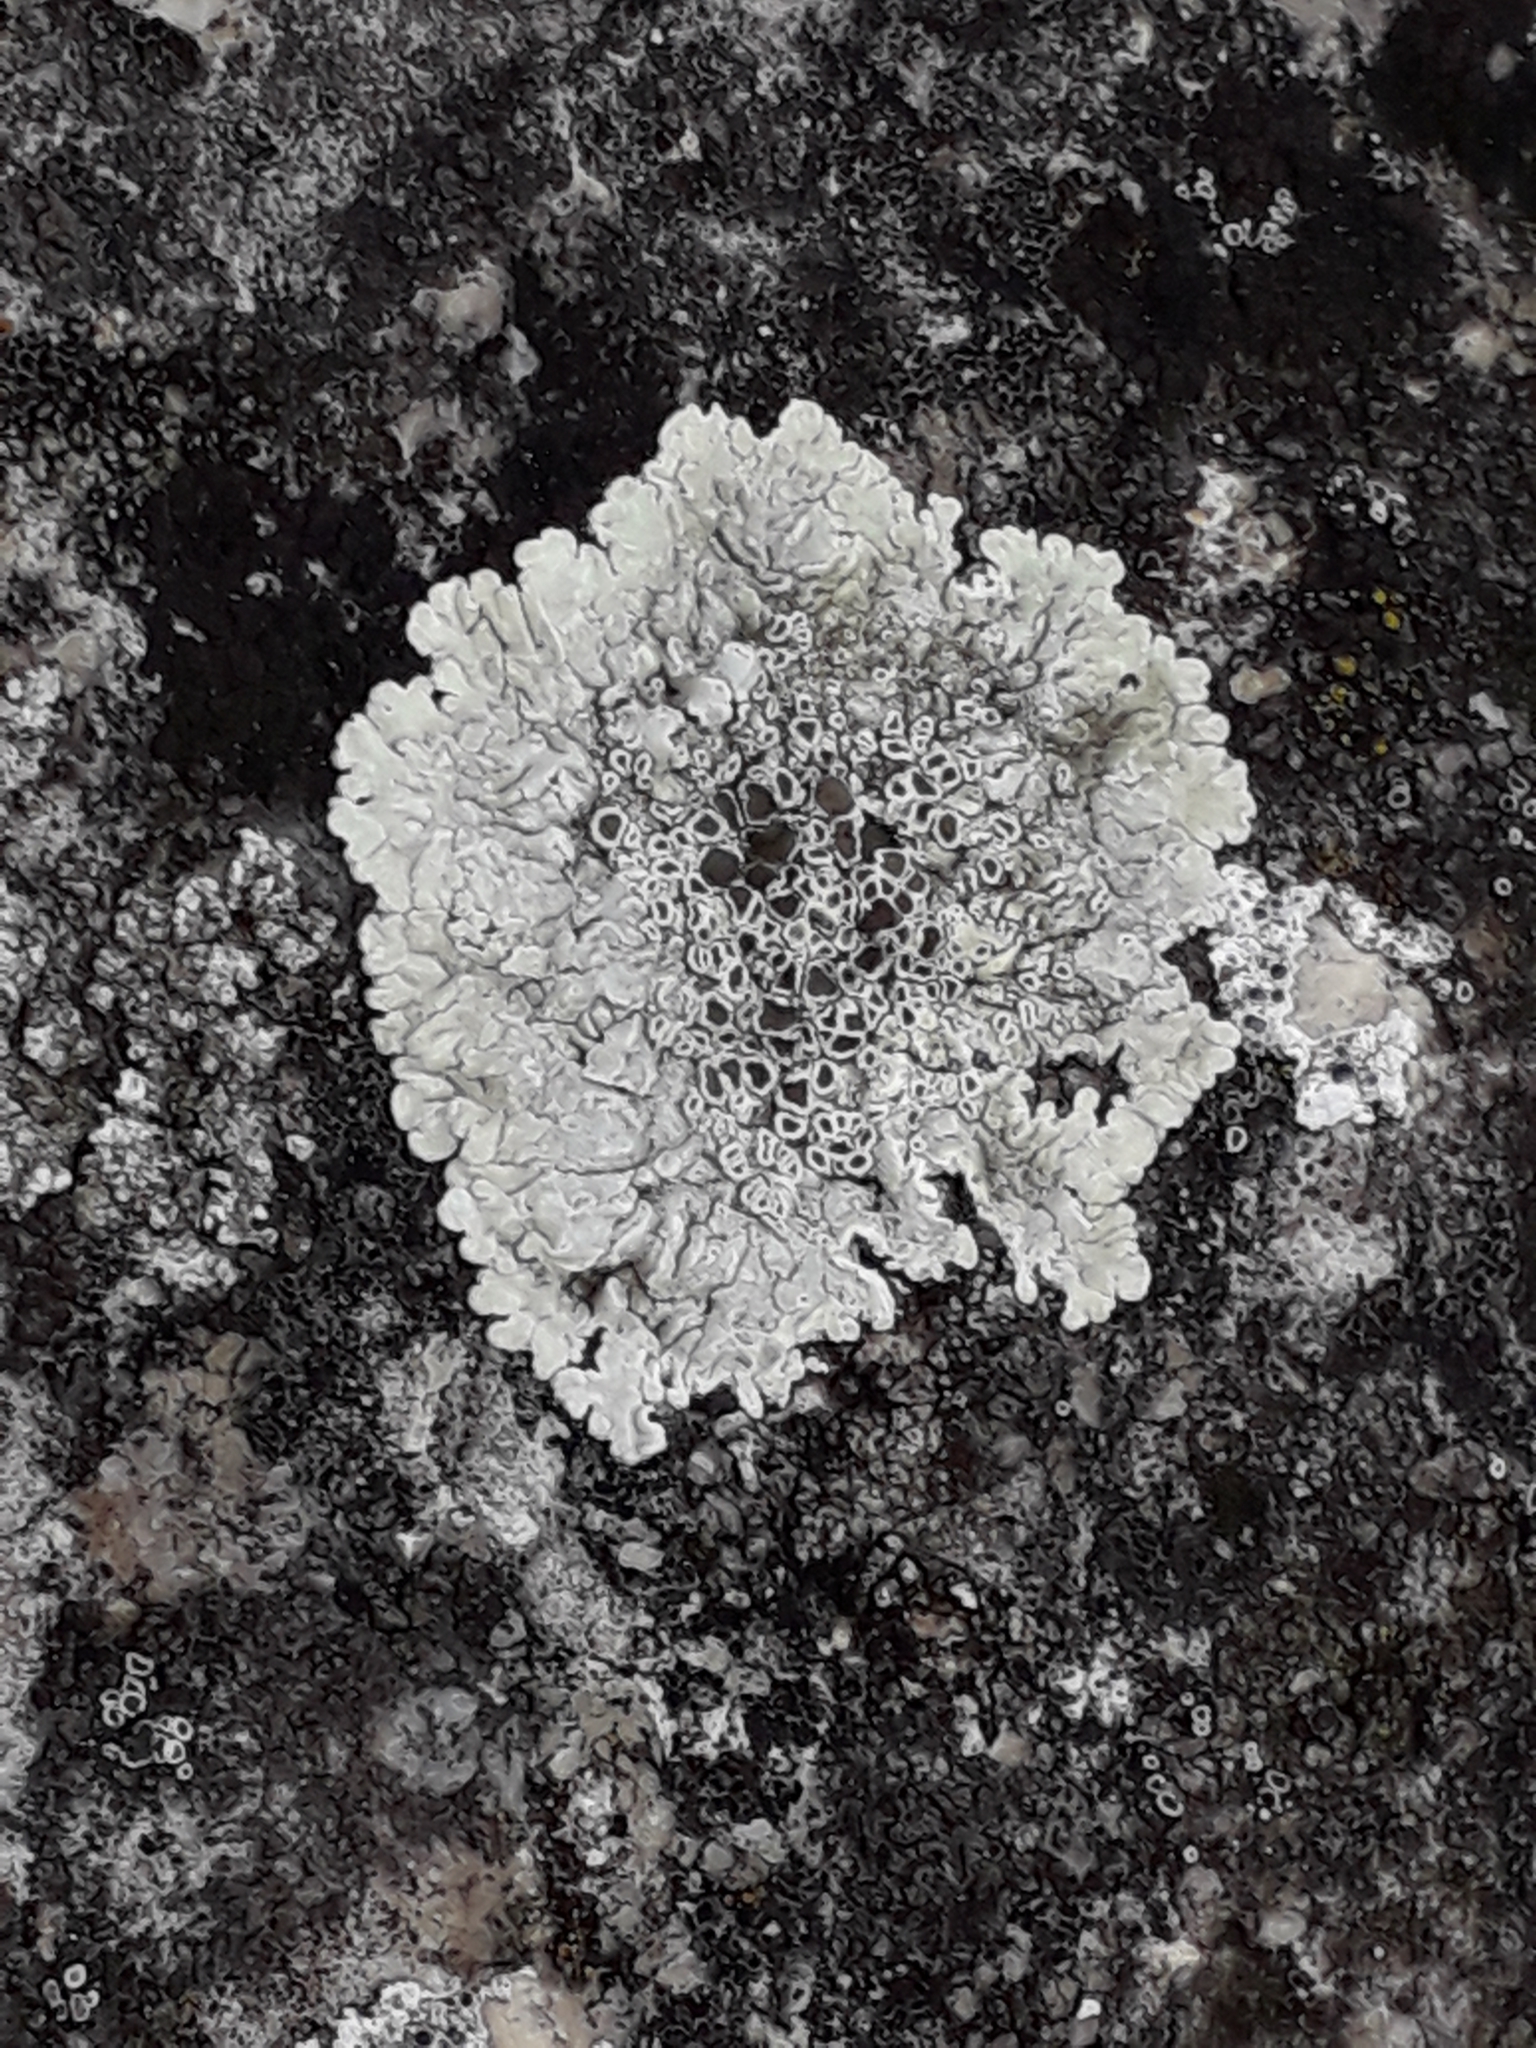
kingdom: Fungi
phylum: Ascomycota
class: Lecanoromycetes
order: Lecanorales
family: Lecanoraceae
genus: Protoparmeliopsis
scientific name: Protoparmeliopsis muralis
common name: Stonewall rim lichen
